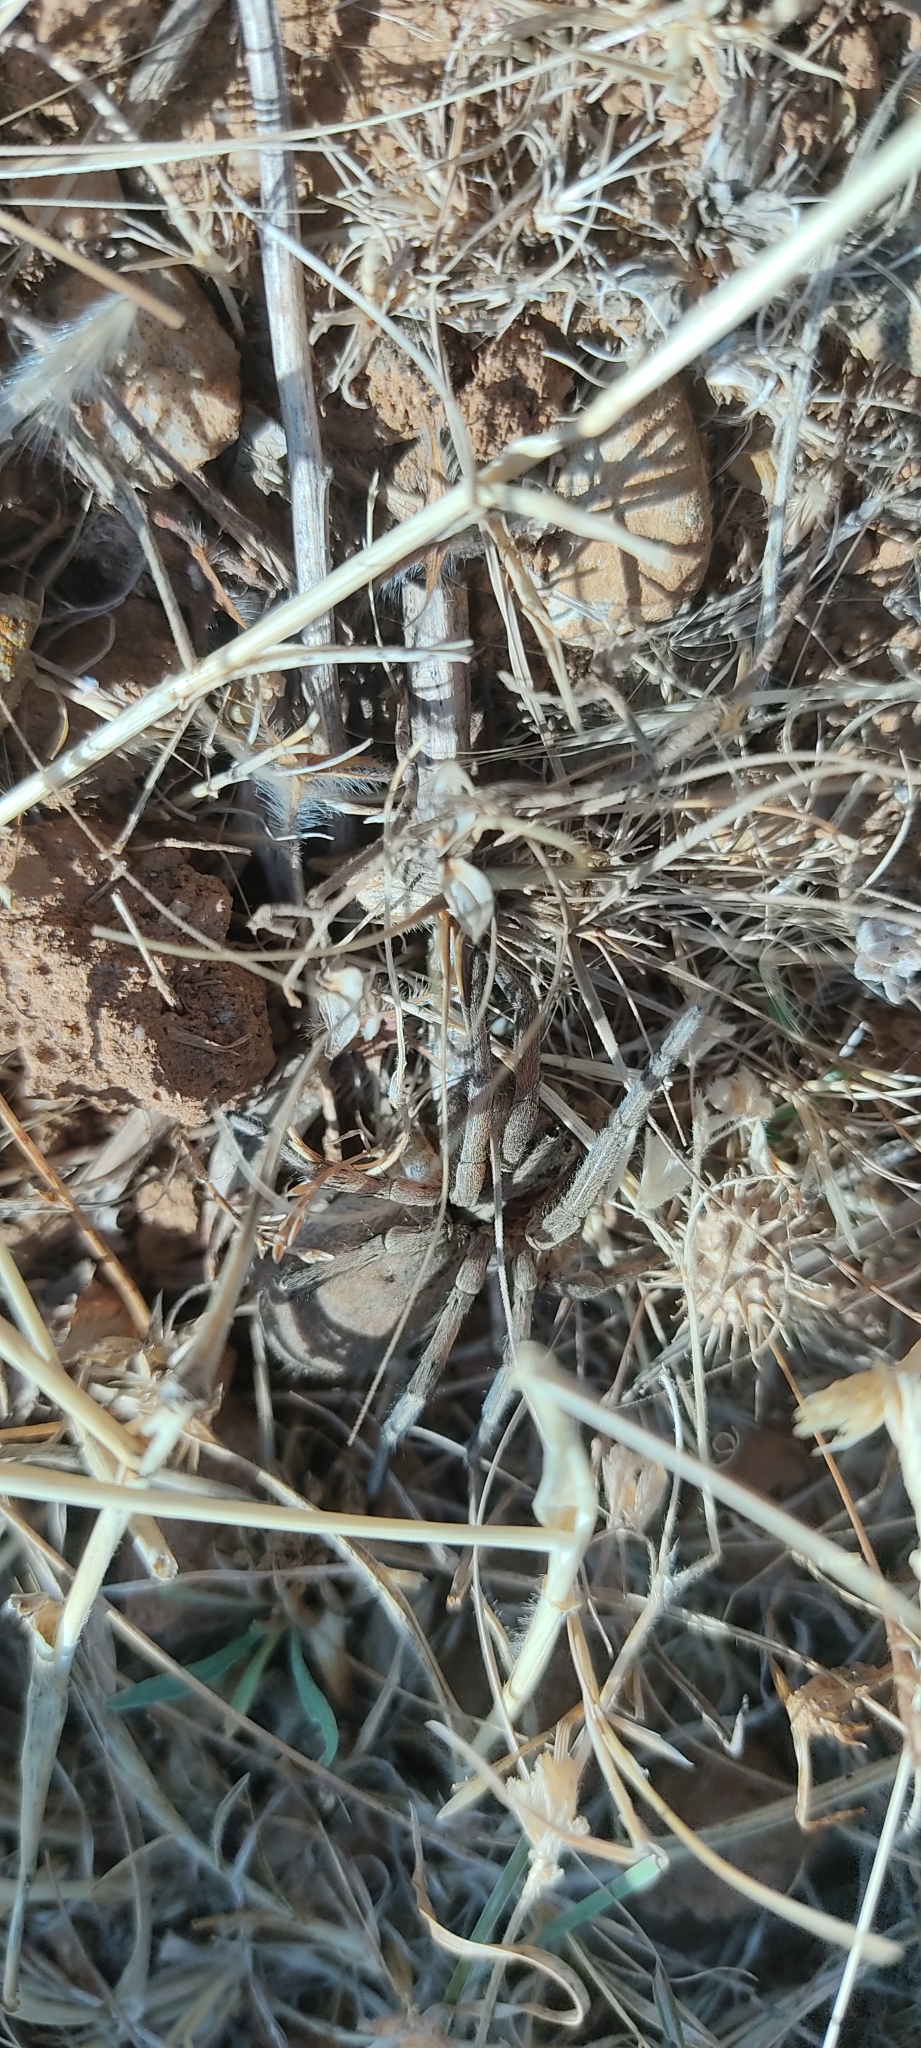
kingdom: Animalia
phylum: Arthropoda
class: Arachnida
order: Araneae
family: Lycosidae
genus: Hogna
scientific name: Hogna radiata
